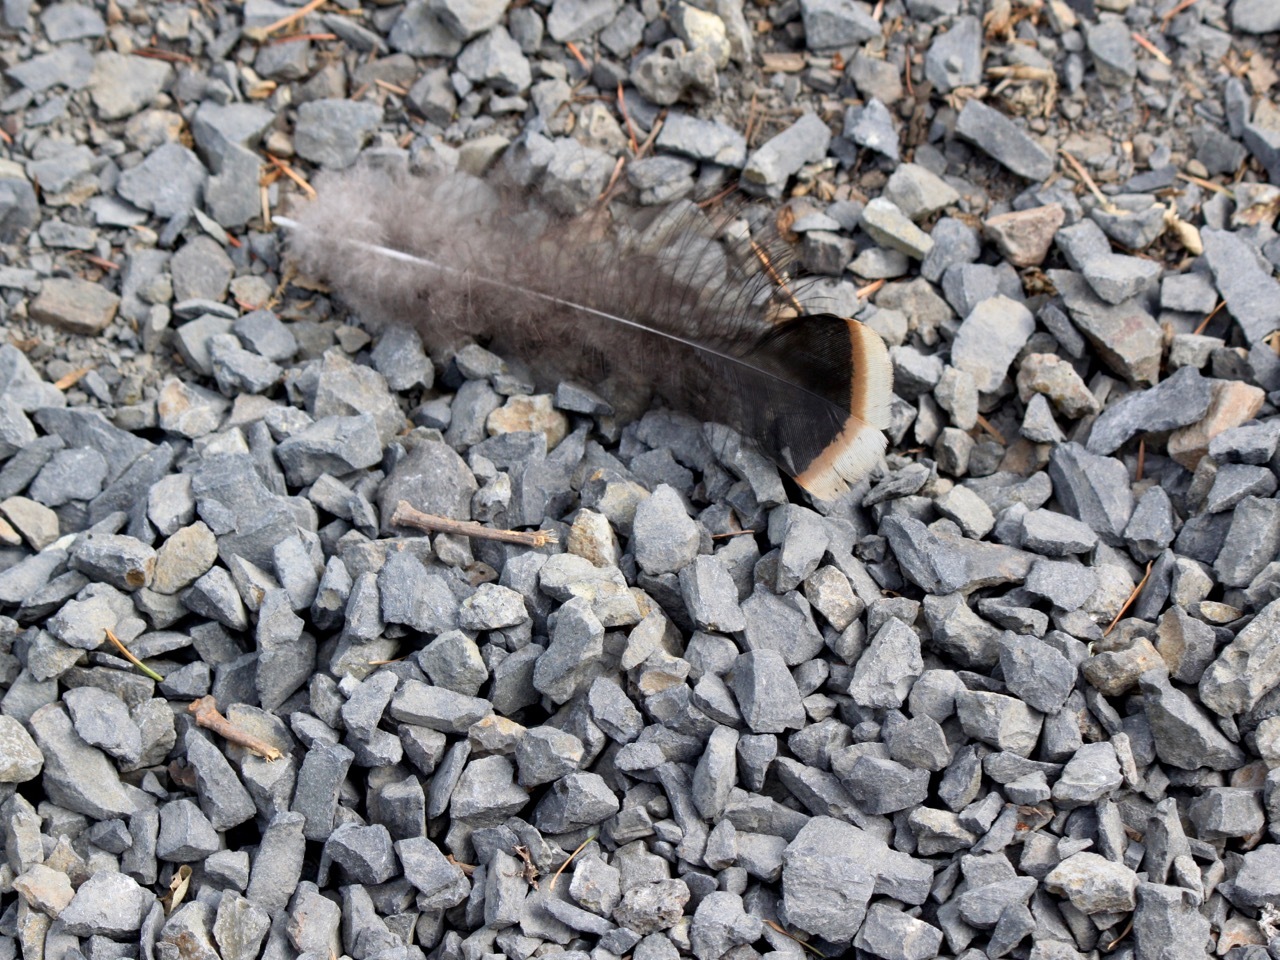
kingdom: Animalia
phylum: Chordata
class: Aves
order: Galliformes
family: Phasianidae
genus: Meleagris
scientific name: Meleagris gallopavo
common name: Wild turkey
